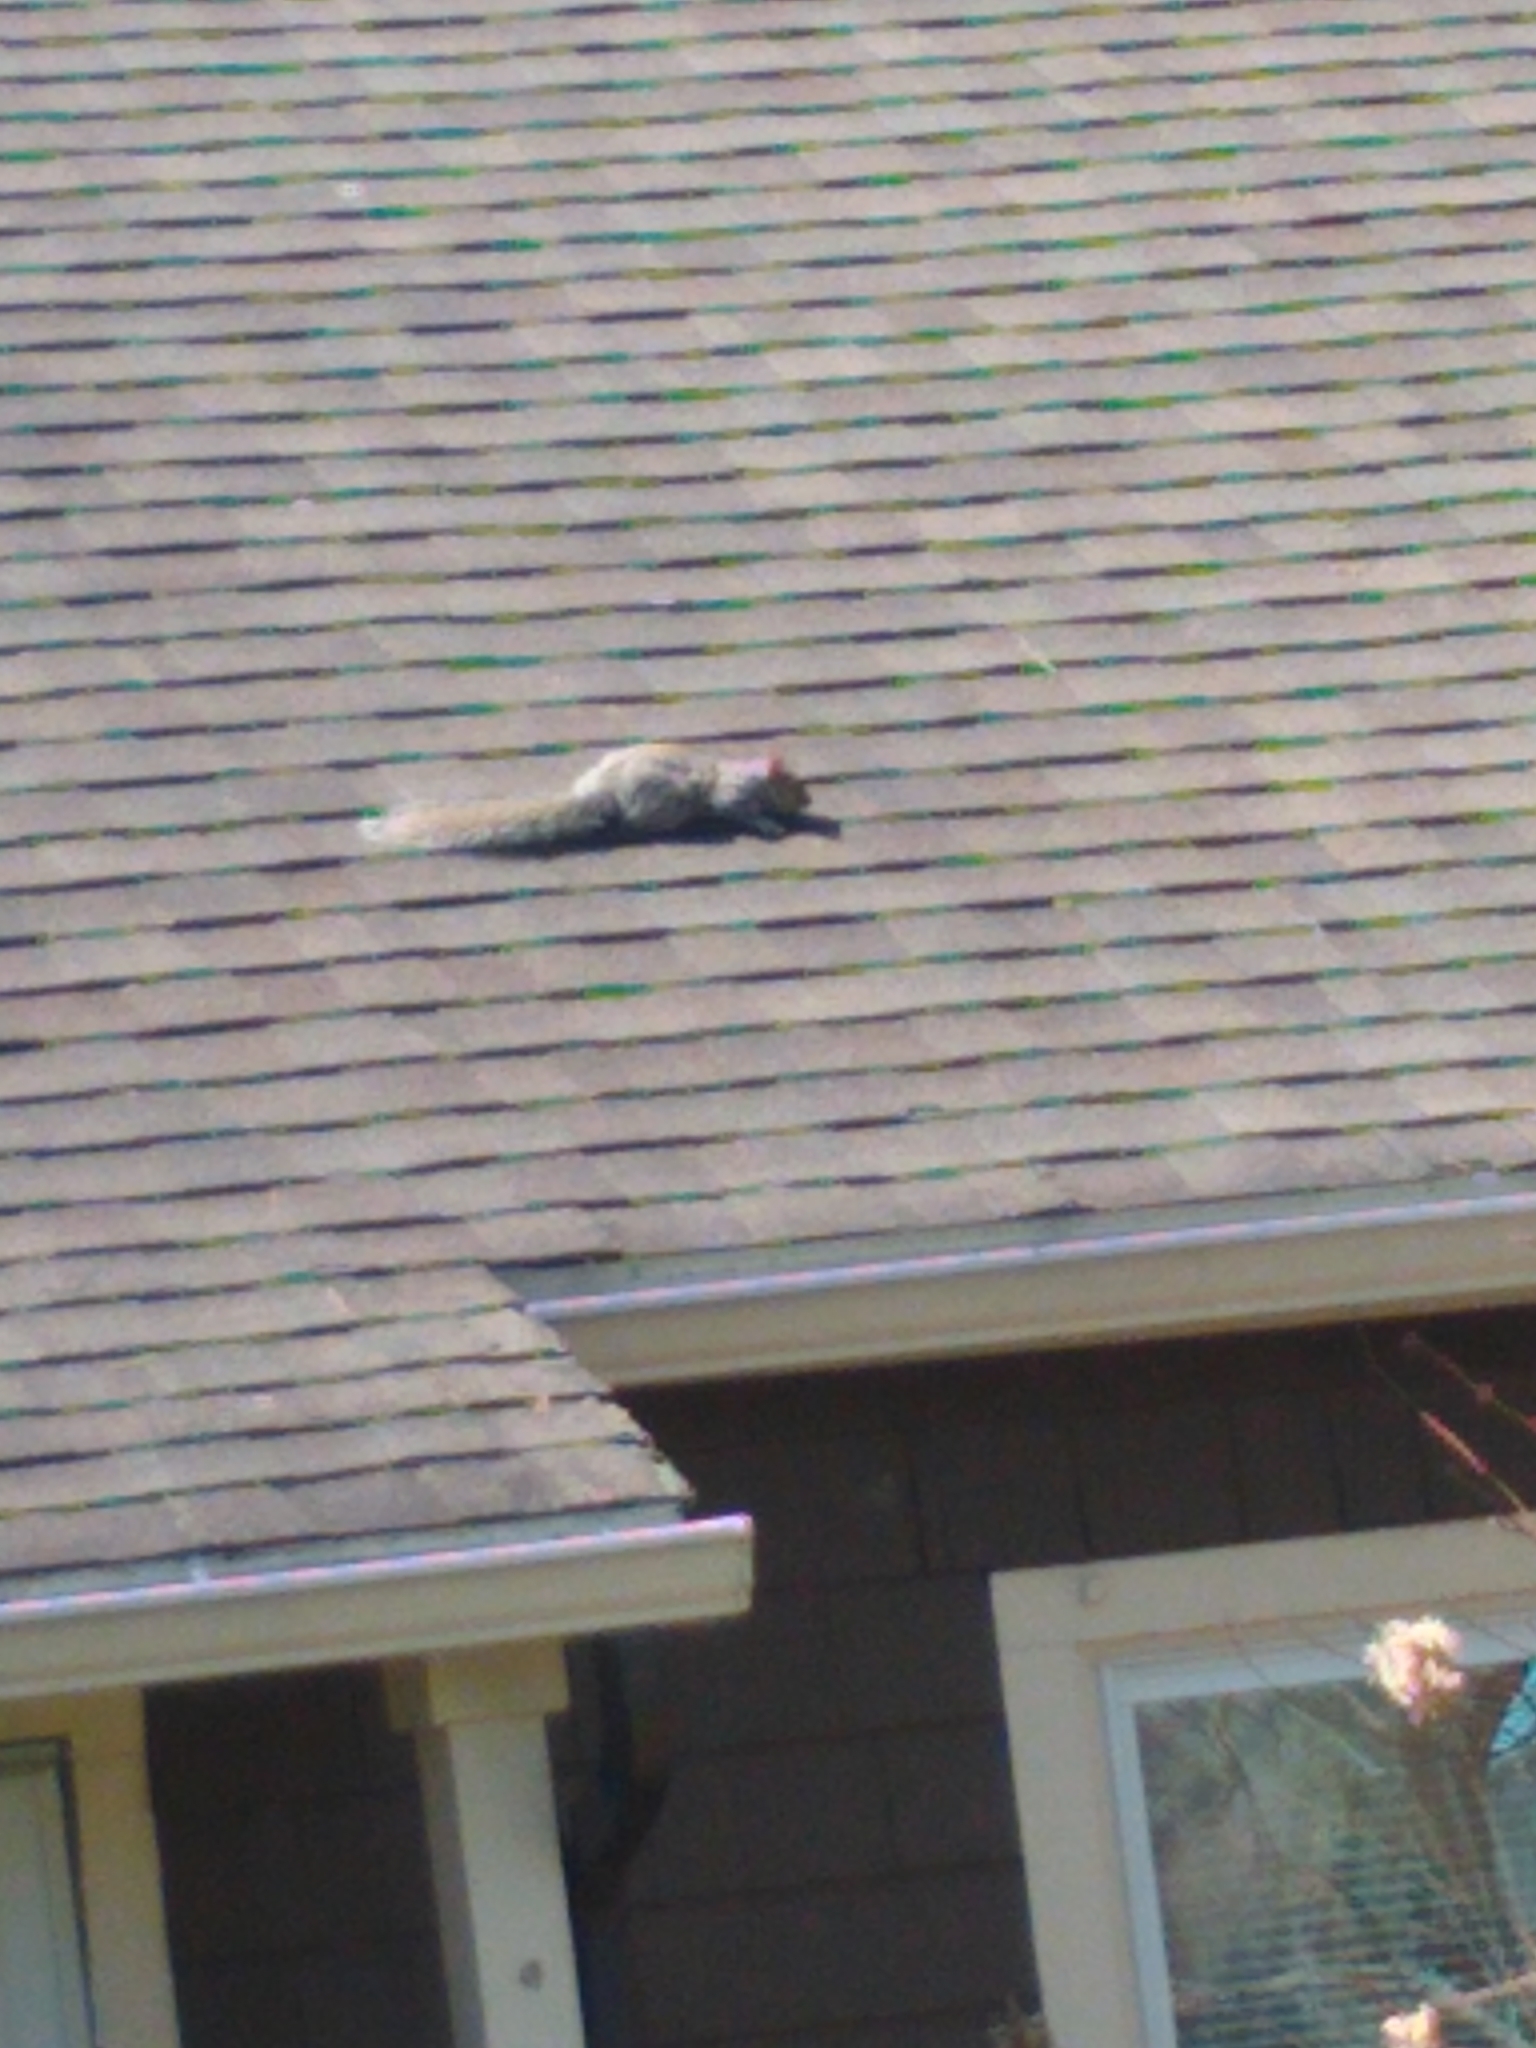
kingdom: Animalia
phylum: Chordata
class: Mammalia
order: Rodentia
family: Sciuridae
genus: Sciurus
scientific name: Sciurus carolinensis
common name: Eastern gray squirrel
